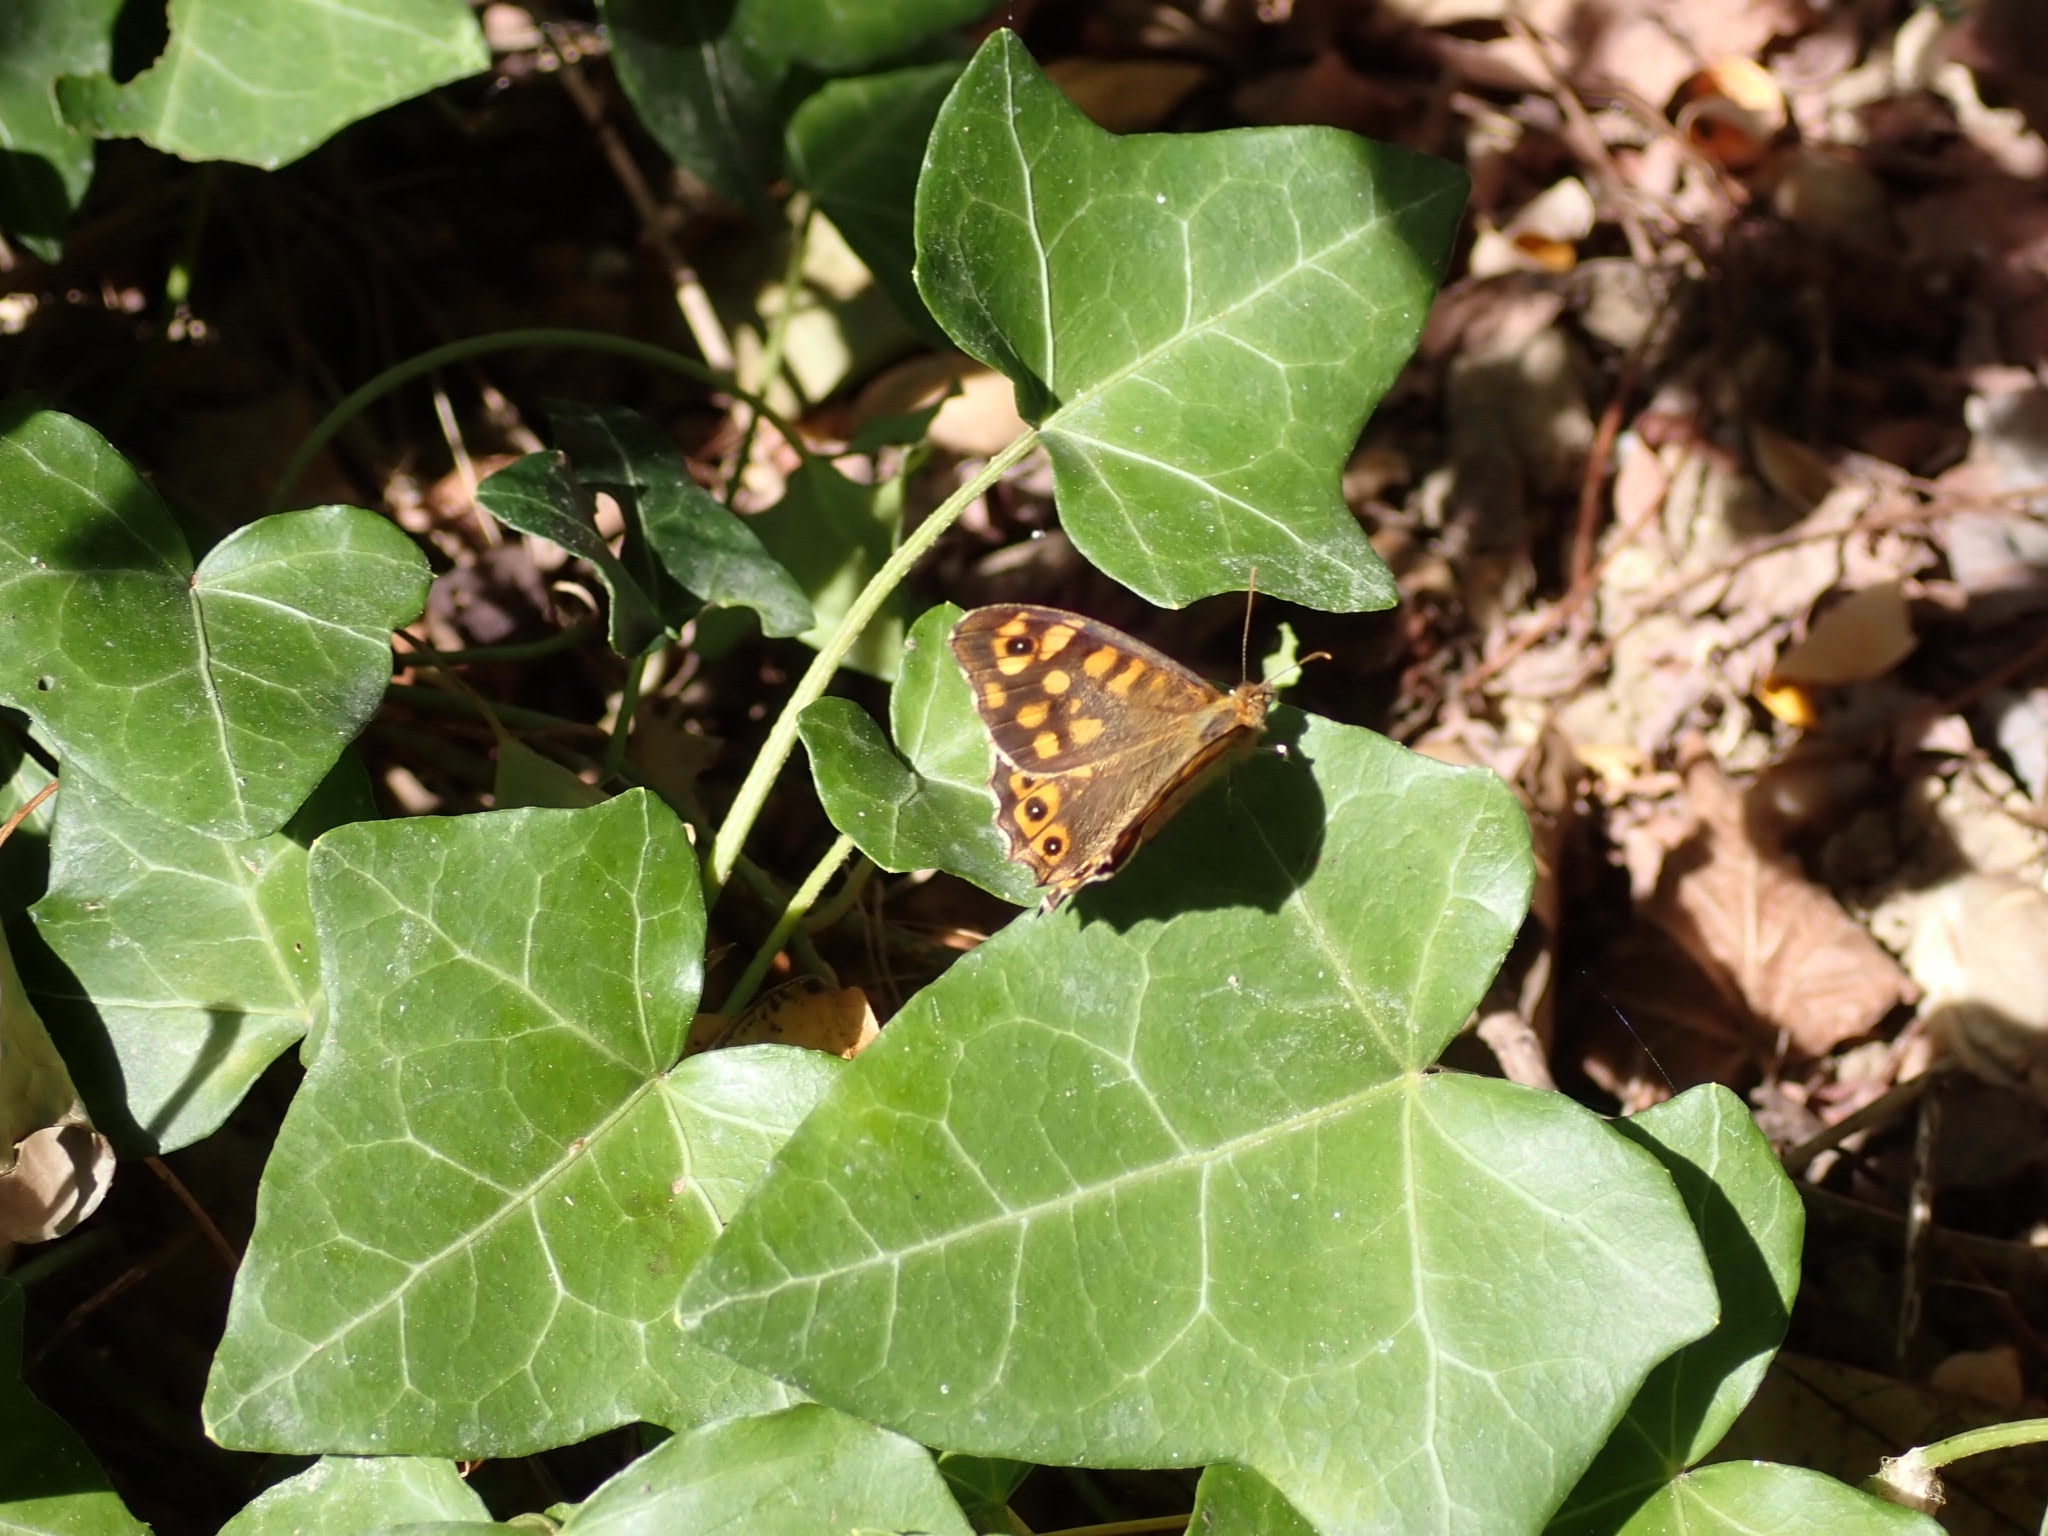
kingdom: Animalia
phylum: Arthropoda
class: Insecta
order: Lepidoptera
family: Nymphalidae
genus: Pararge
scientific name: Pararge aegeria
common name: Speckled wood
